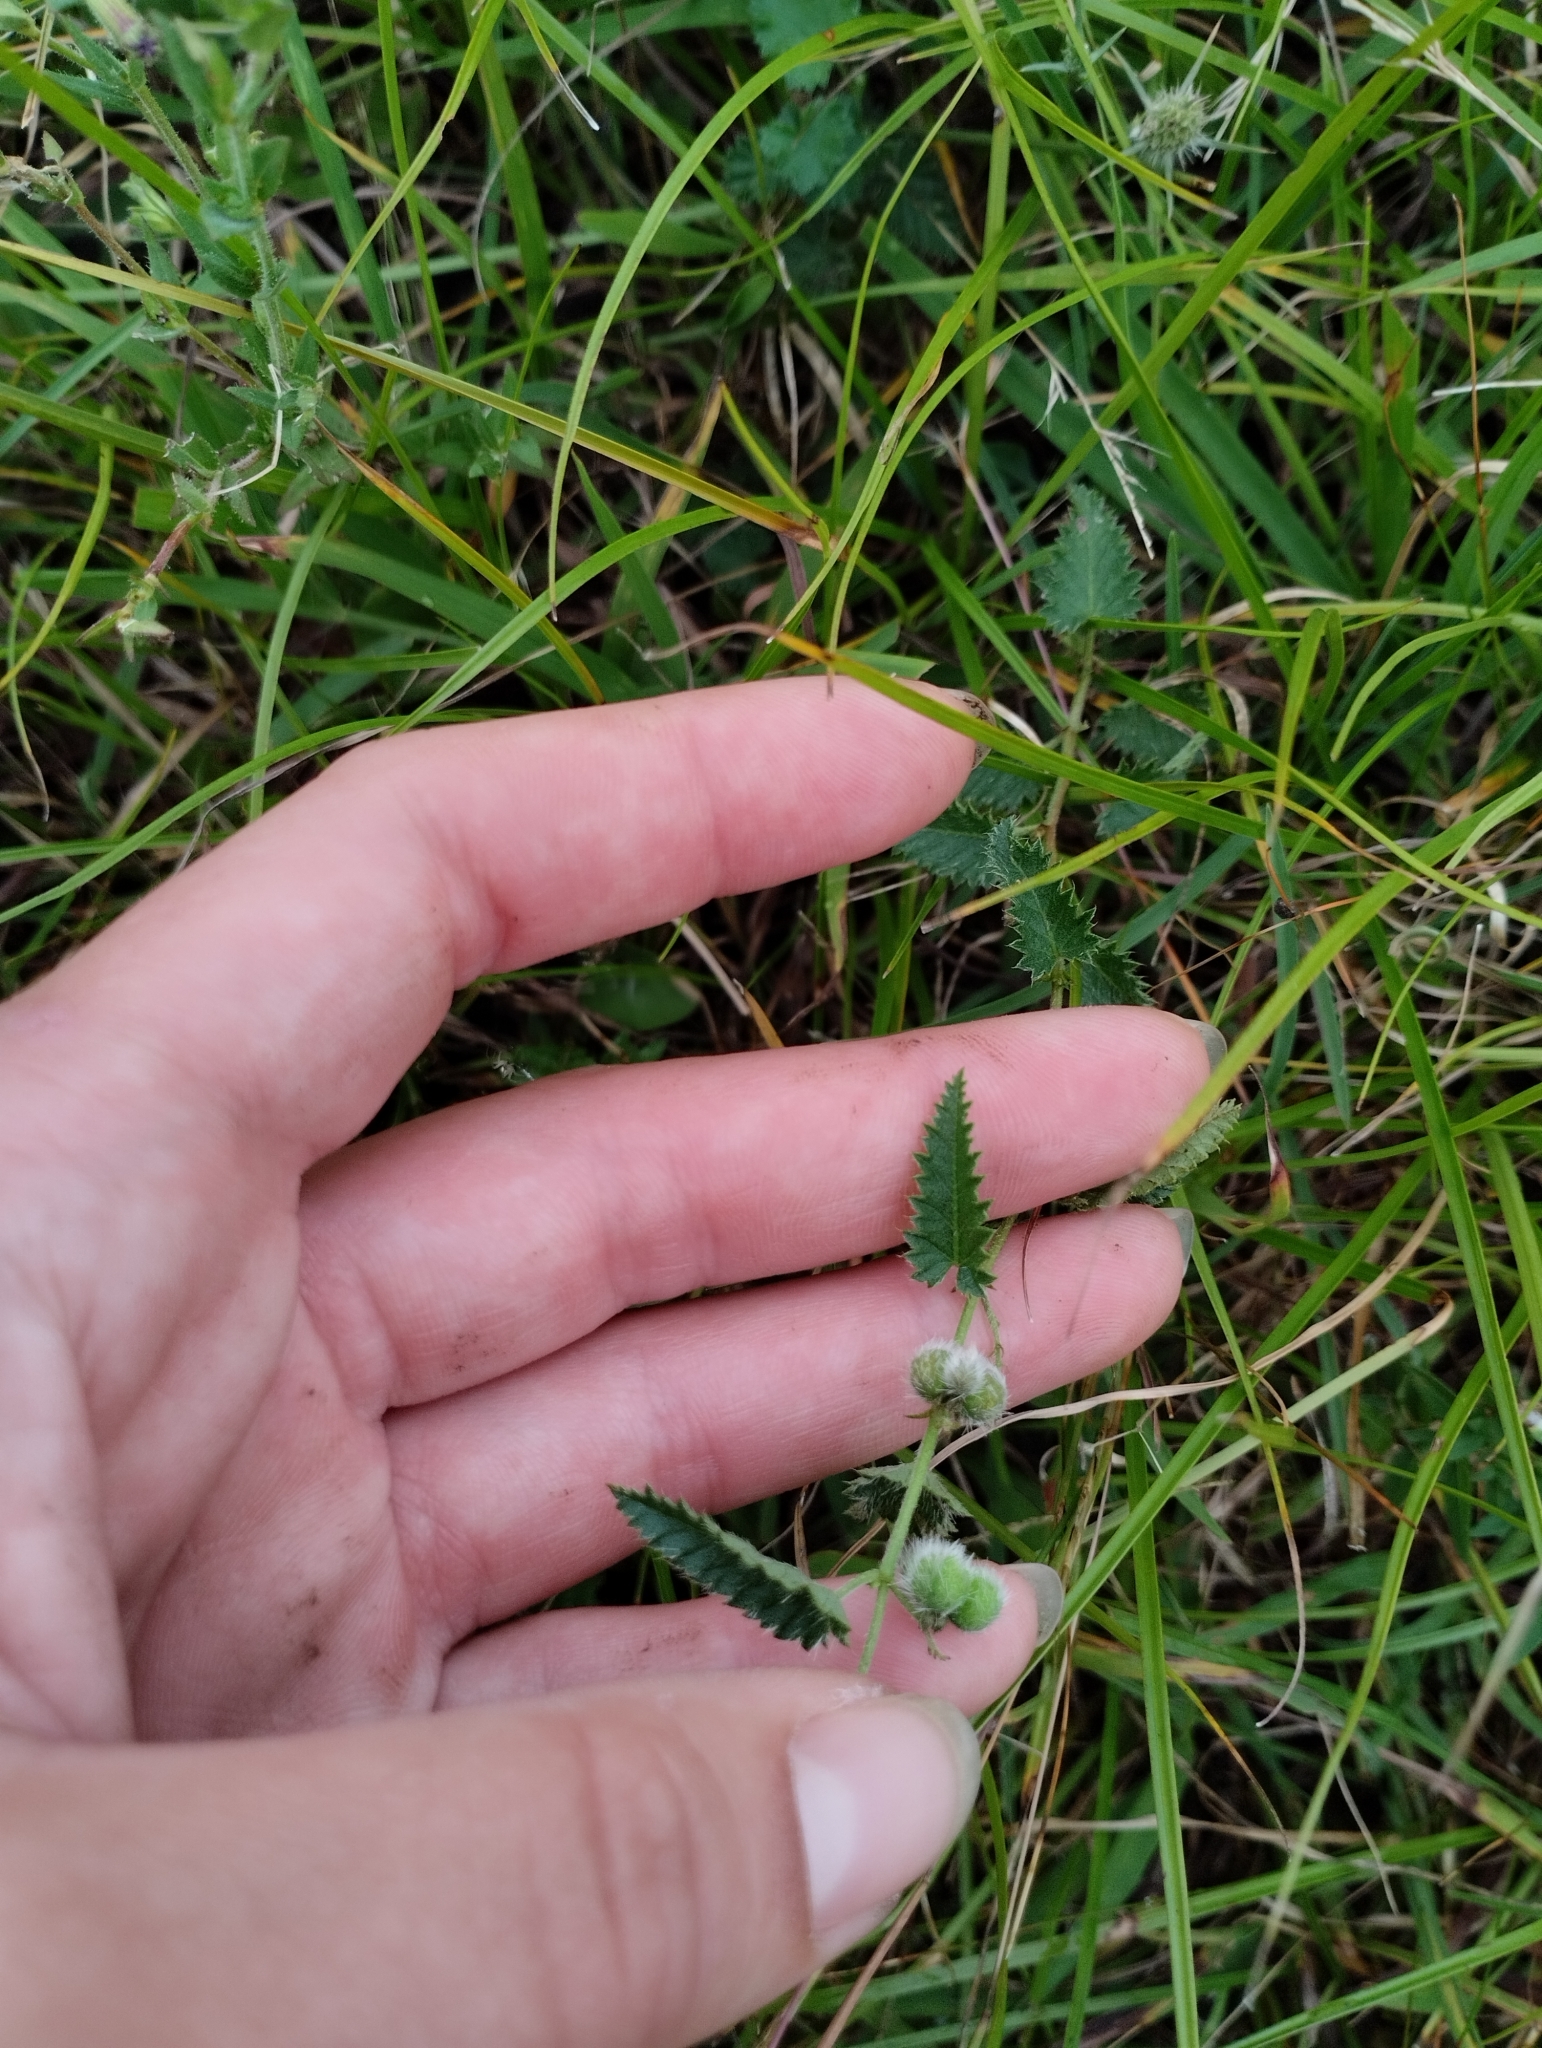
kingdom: Plantae
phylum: Tracheophyta
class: Magnoliopsida
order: Malpighiales
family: Euphorbiaceae
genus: Tragia
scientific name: Tragia geraniifolia
